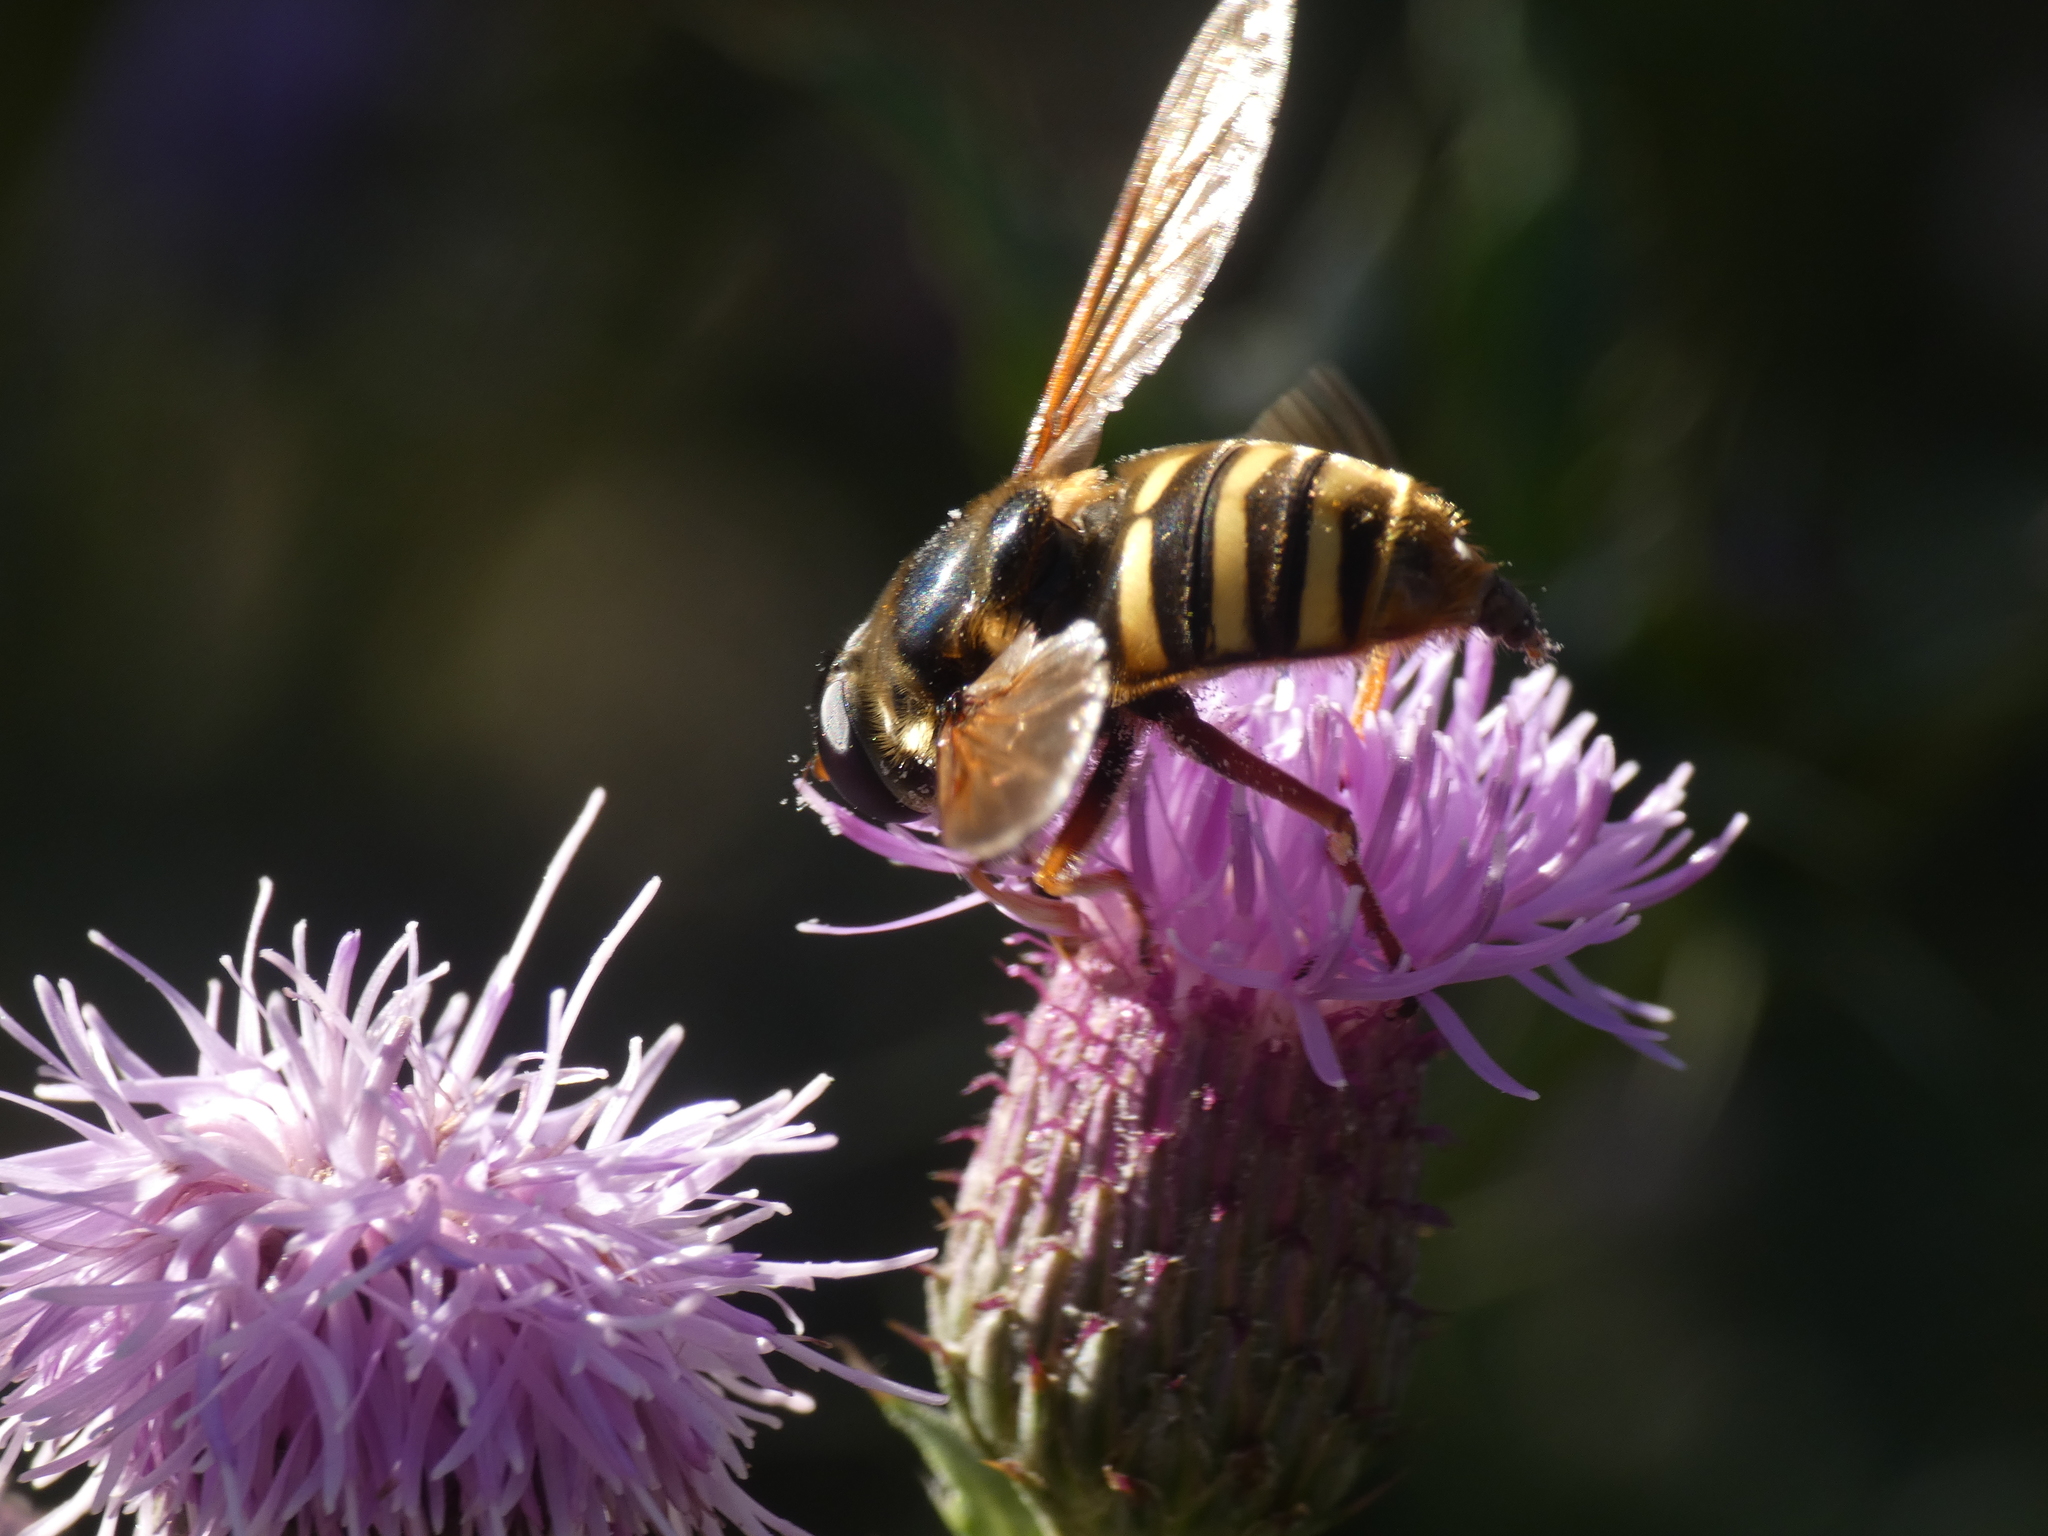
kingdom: Animalia
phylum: Arthropoda
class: Insecta
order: Diptera
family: Syrphidae
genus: Sericomyia
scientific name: Sericomyia silentis
